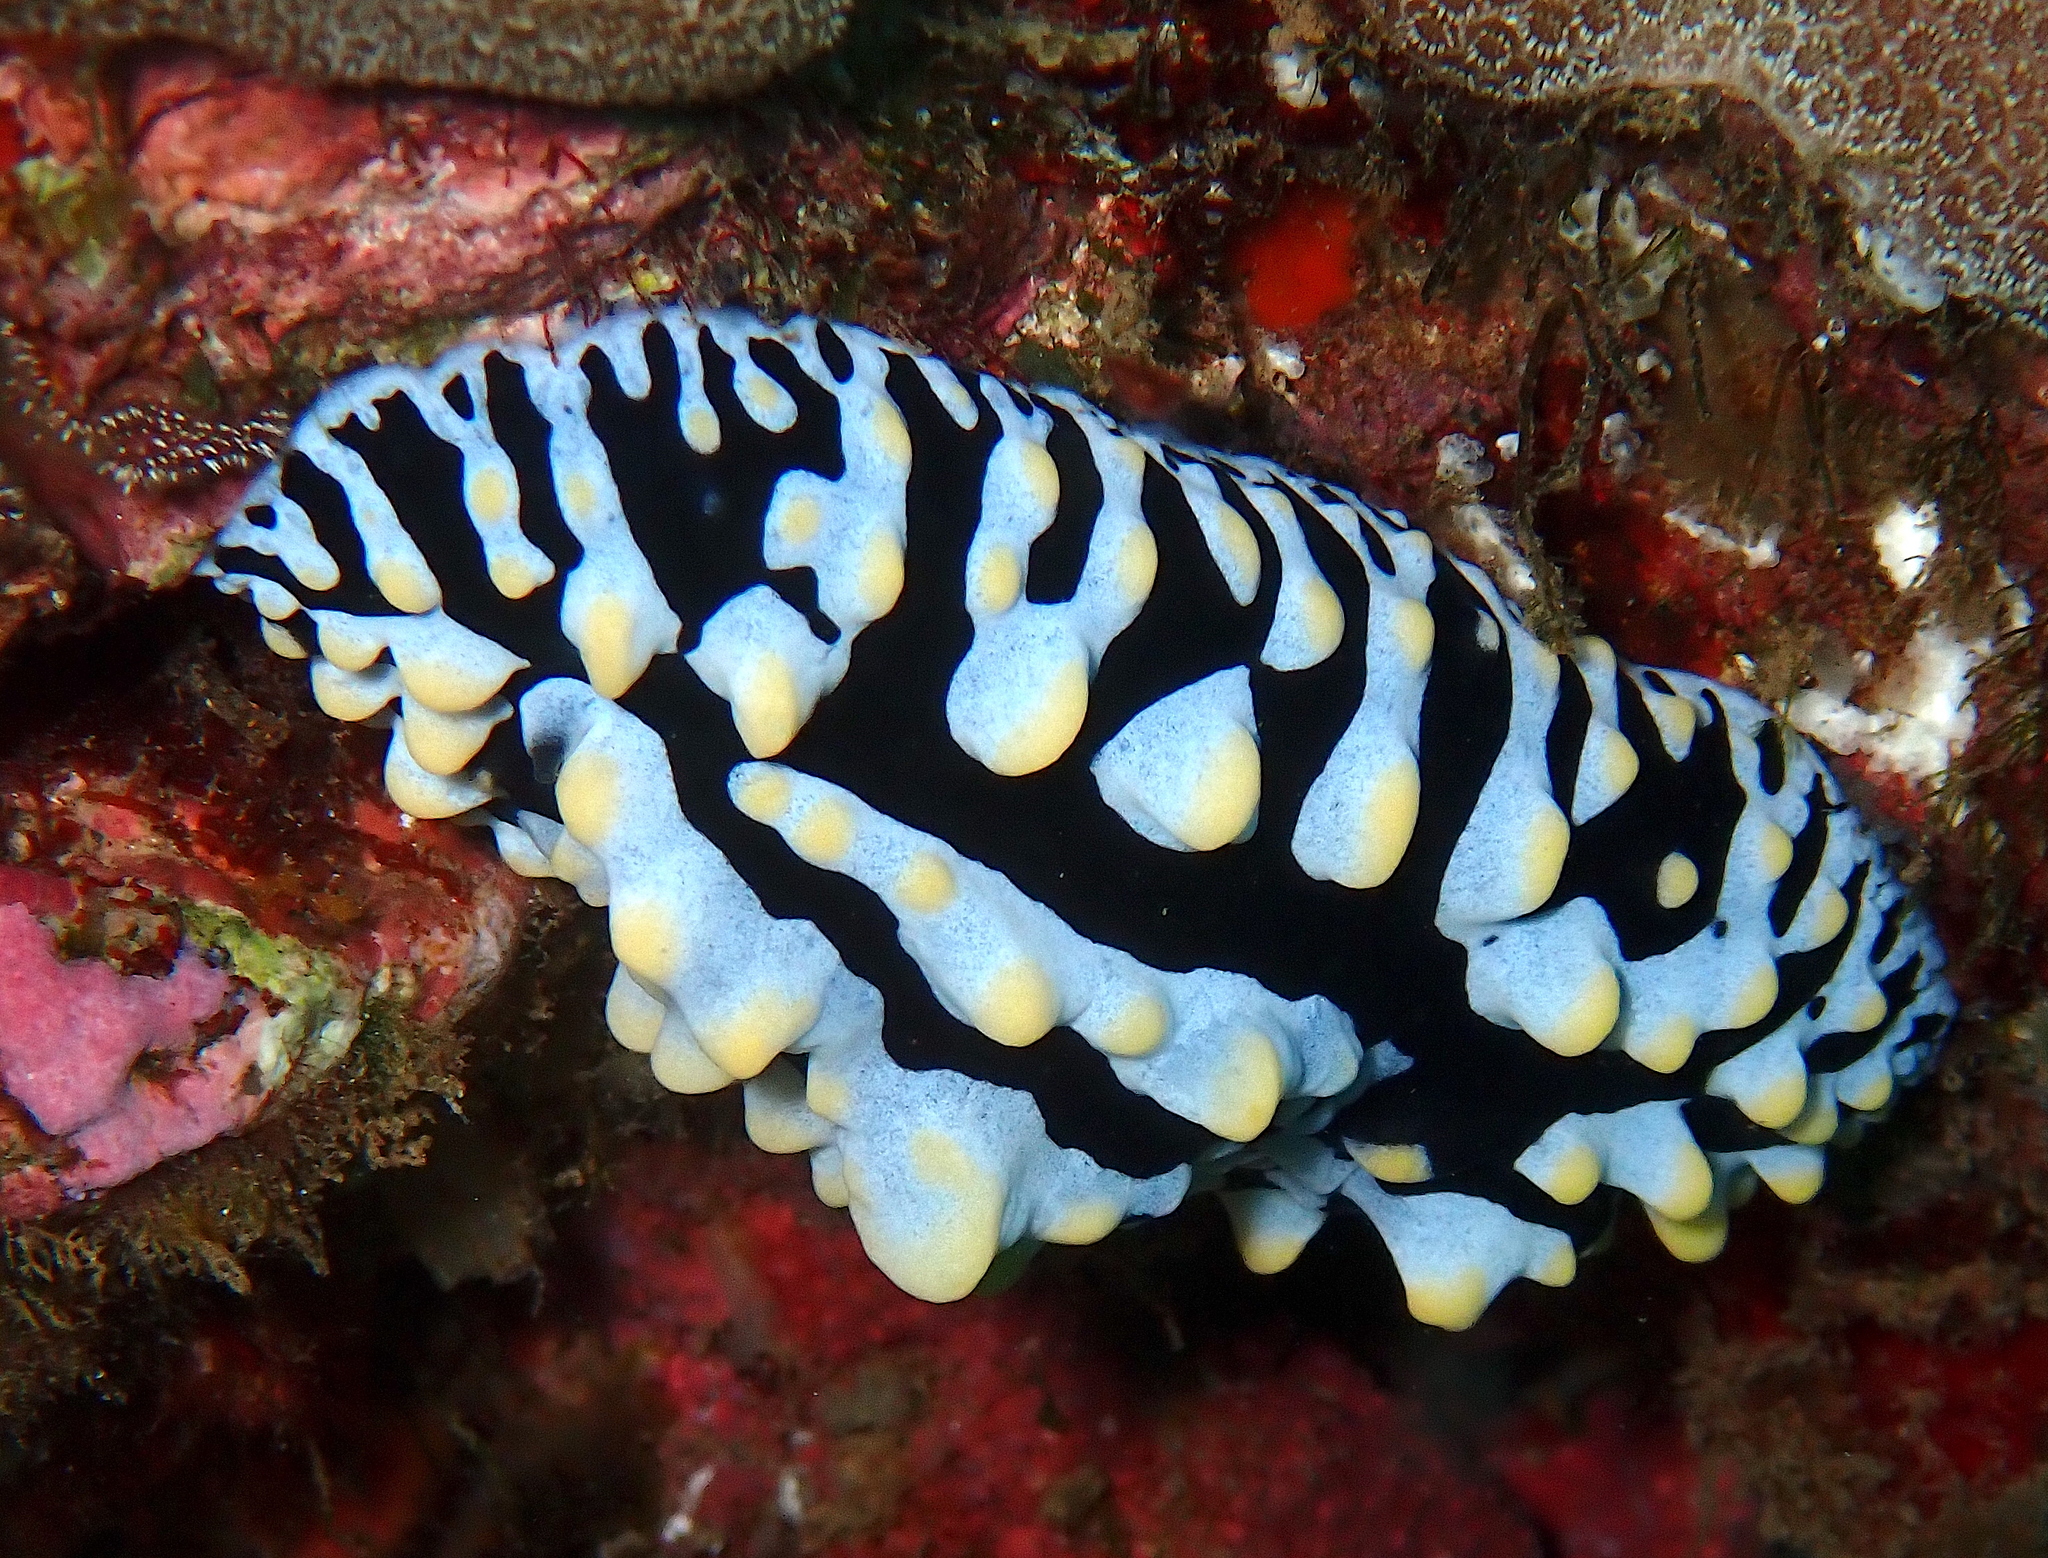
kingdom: Animalia
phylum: Mollusca
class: Gastropoda
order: Nudibranchia
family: Phyllidiidae
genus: Phyllidia
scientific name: Phyllidia varicosa
